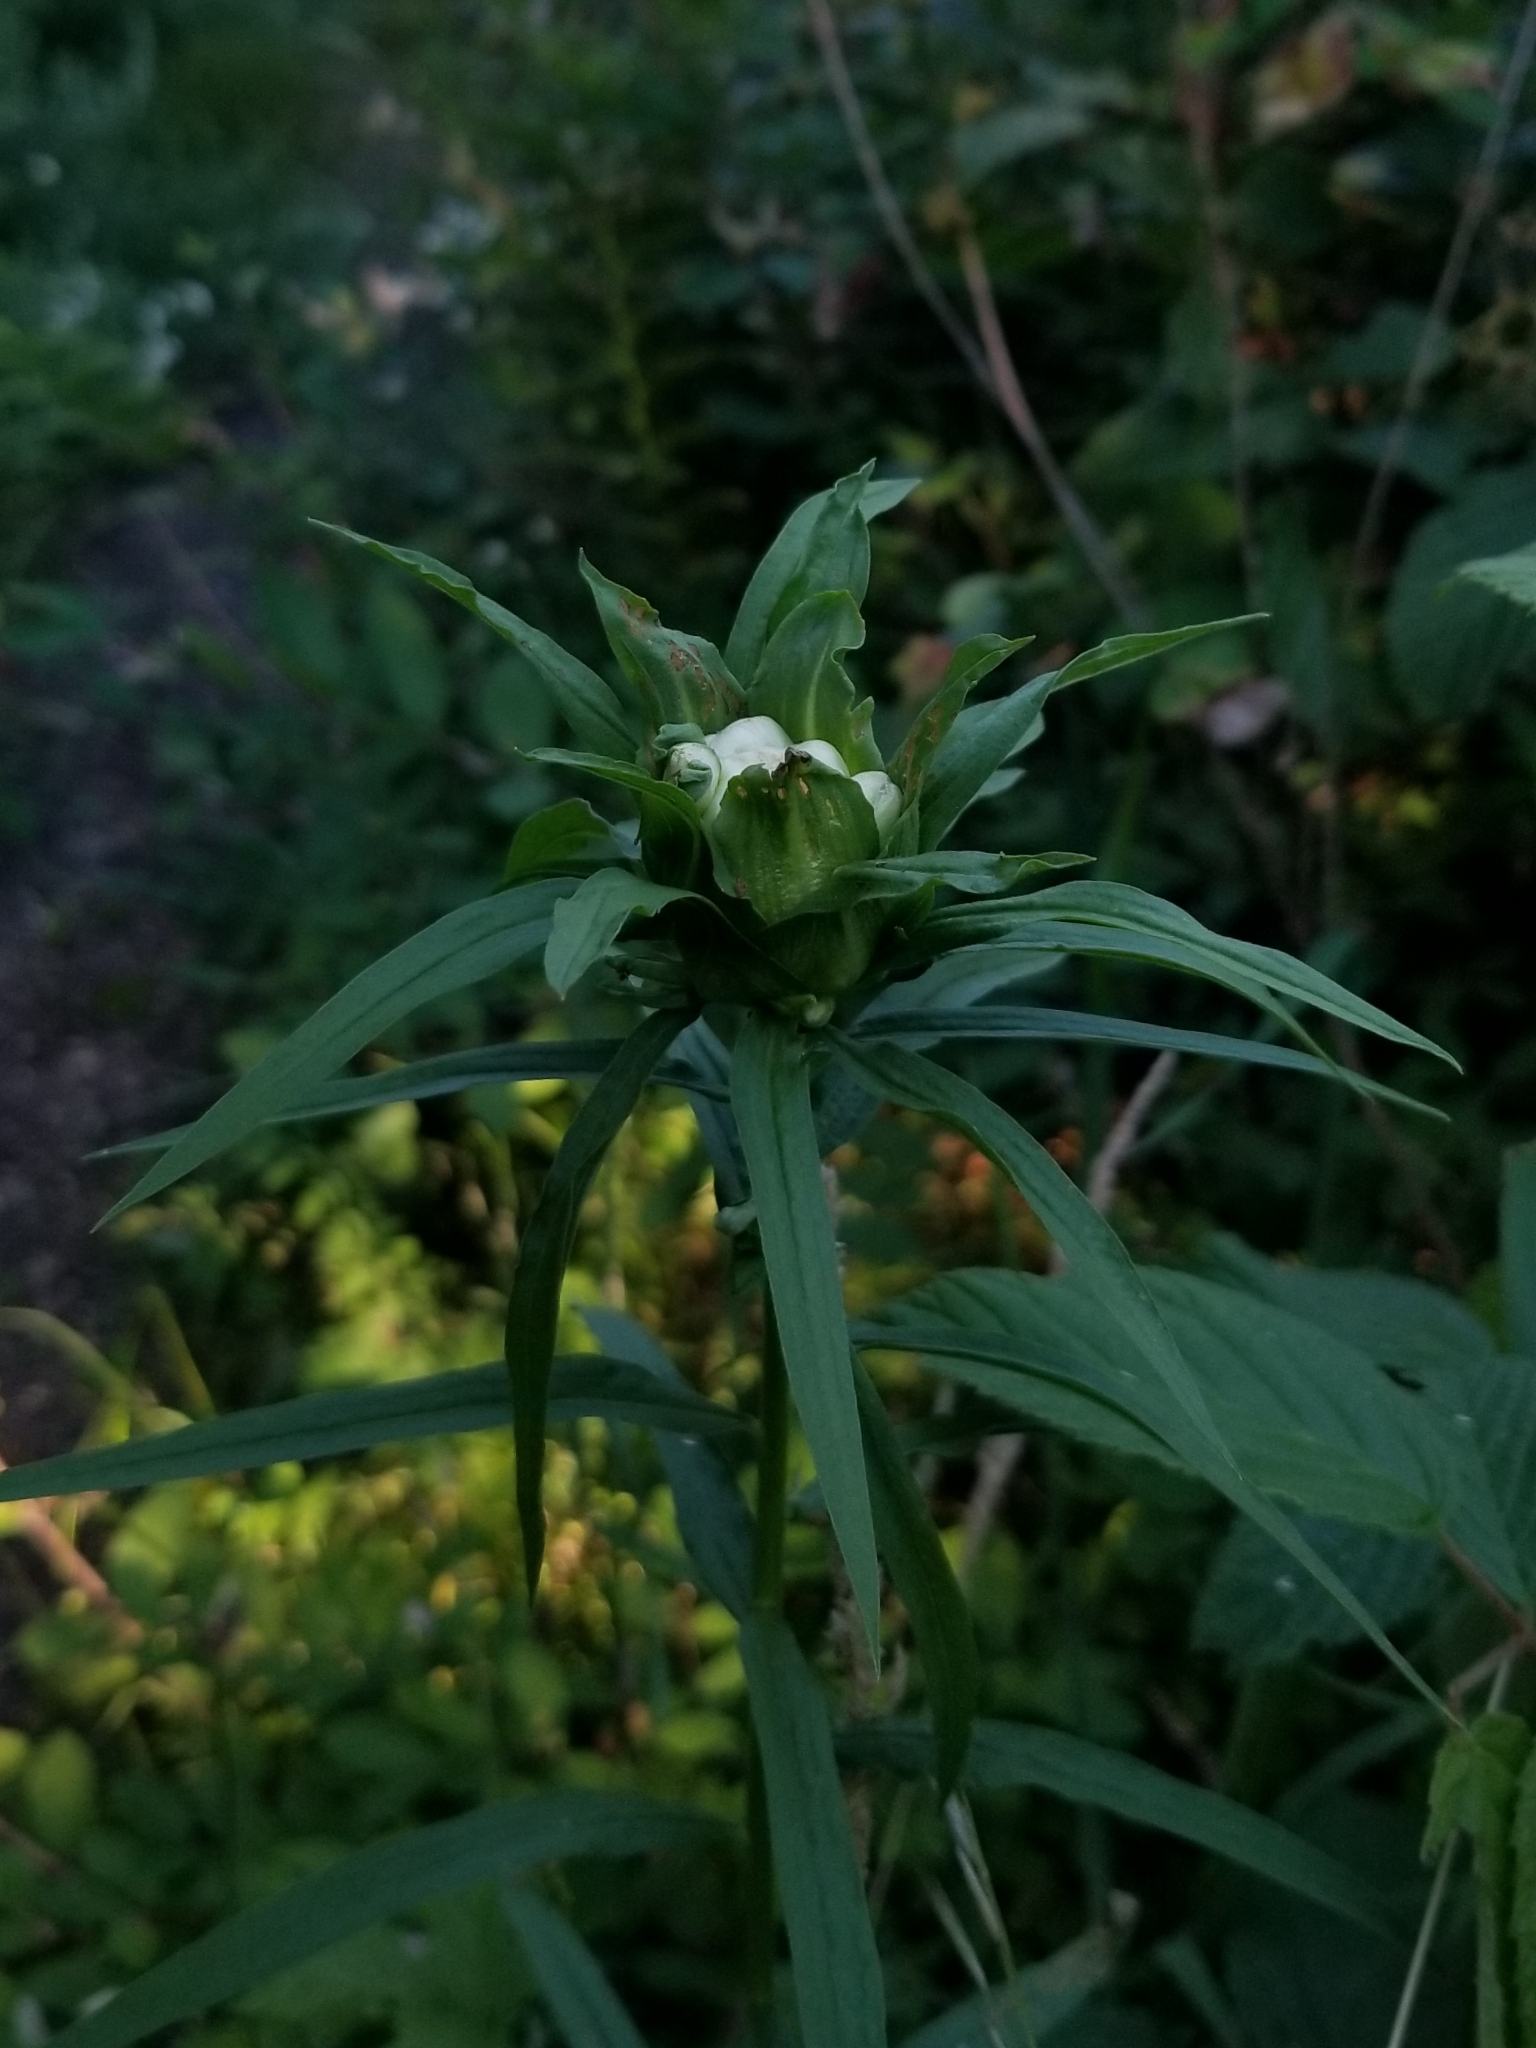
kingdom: Animalia
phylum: Arthropoda
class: Insecta
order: Diptera
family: Cecidomyiidae
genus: Rhopalomyia
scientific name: Rhopalomyia lobata
